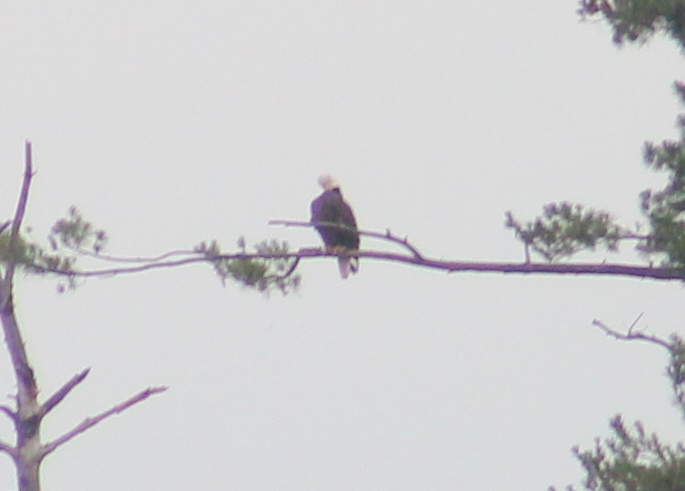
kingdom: Animalia
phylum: Chordata
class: Aves
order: Accipitriformes
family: Accipitridae
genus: Haliaeetus
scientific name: Haliaeetus leucocephalus
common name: Bald eagle
